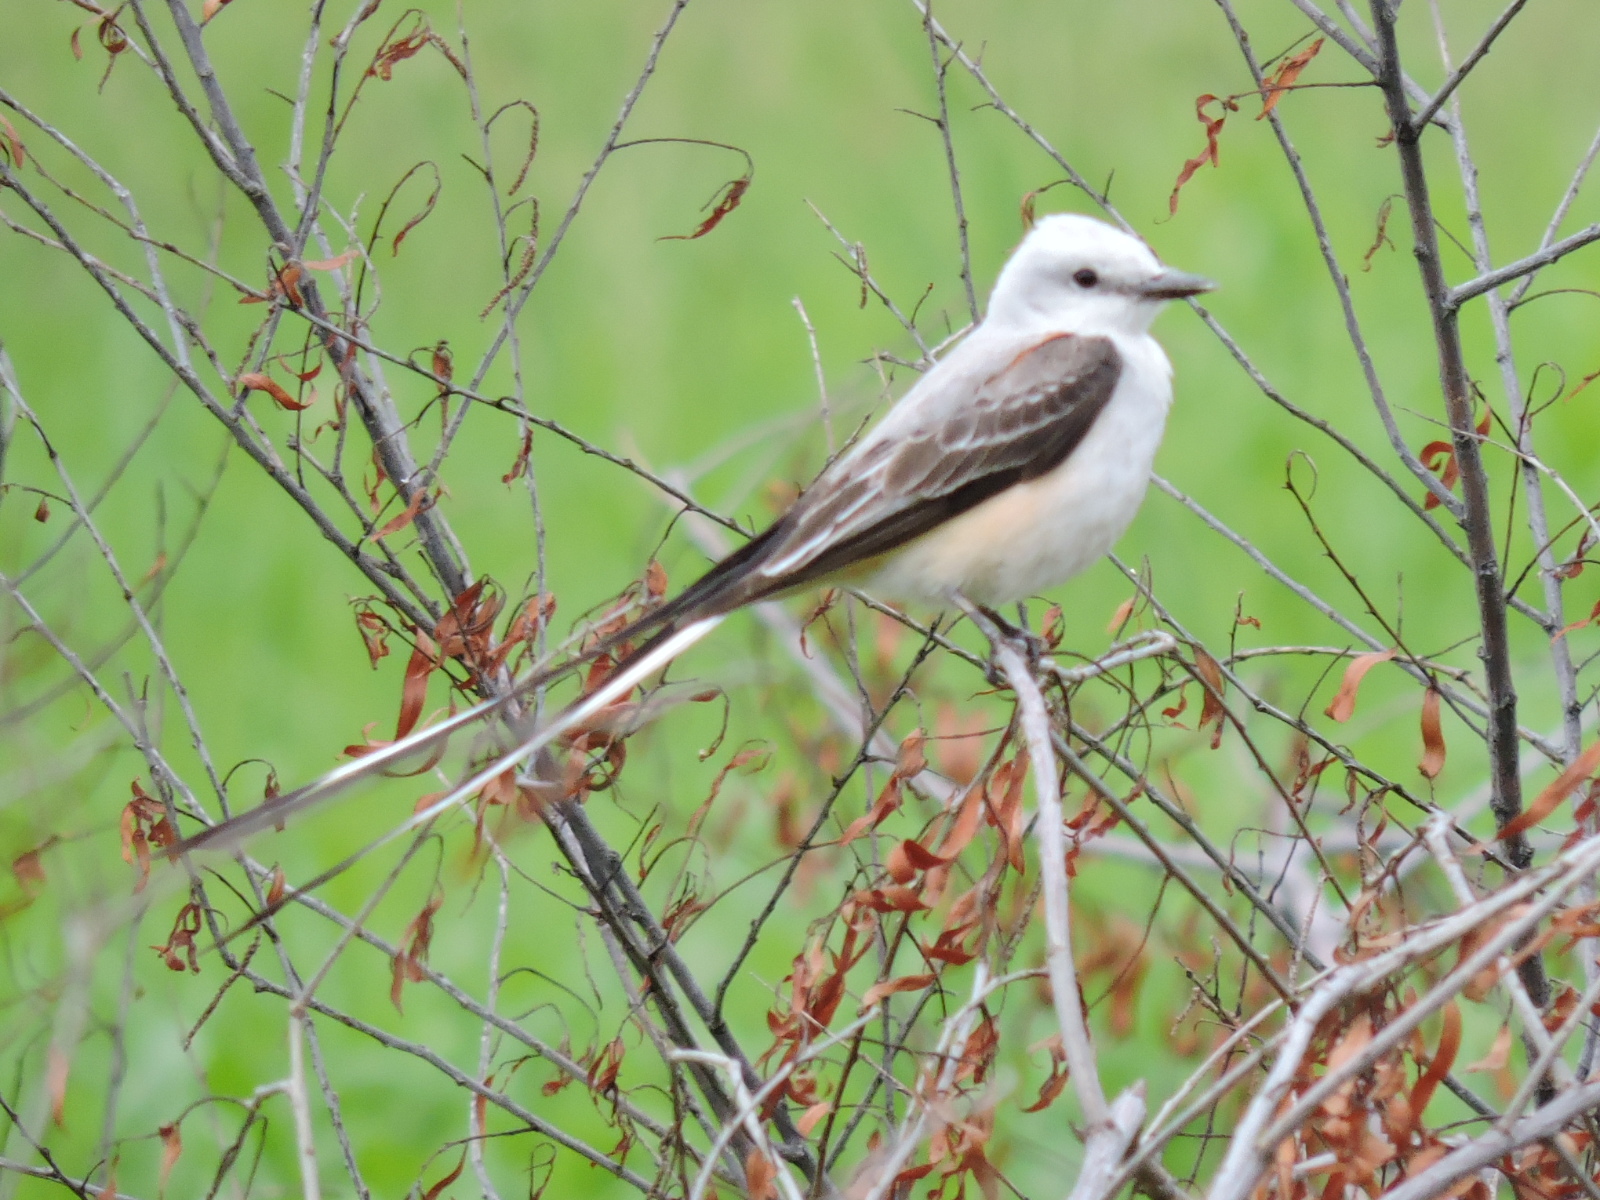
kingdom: Animalia
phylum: Chordata
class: Aves
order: Passeriformes
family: Tyrannidae
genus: Tyrannus
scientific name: Tyrannus forficatus
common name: Scissor-tailed flycatcher
